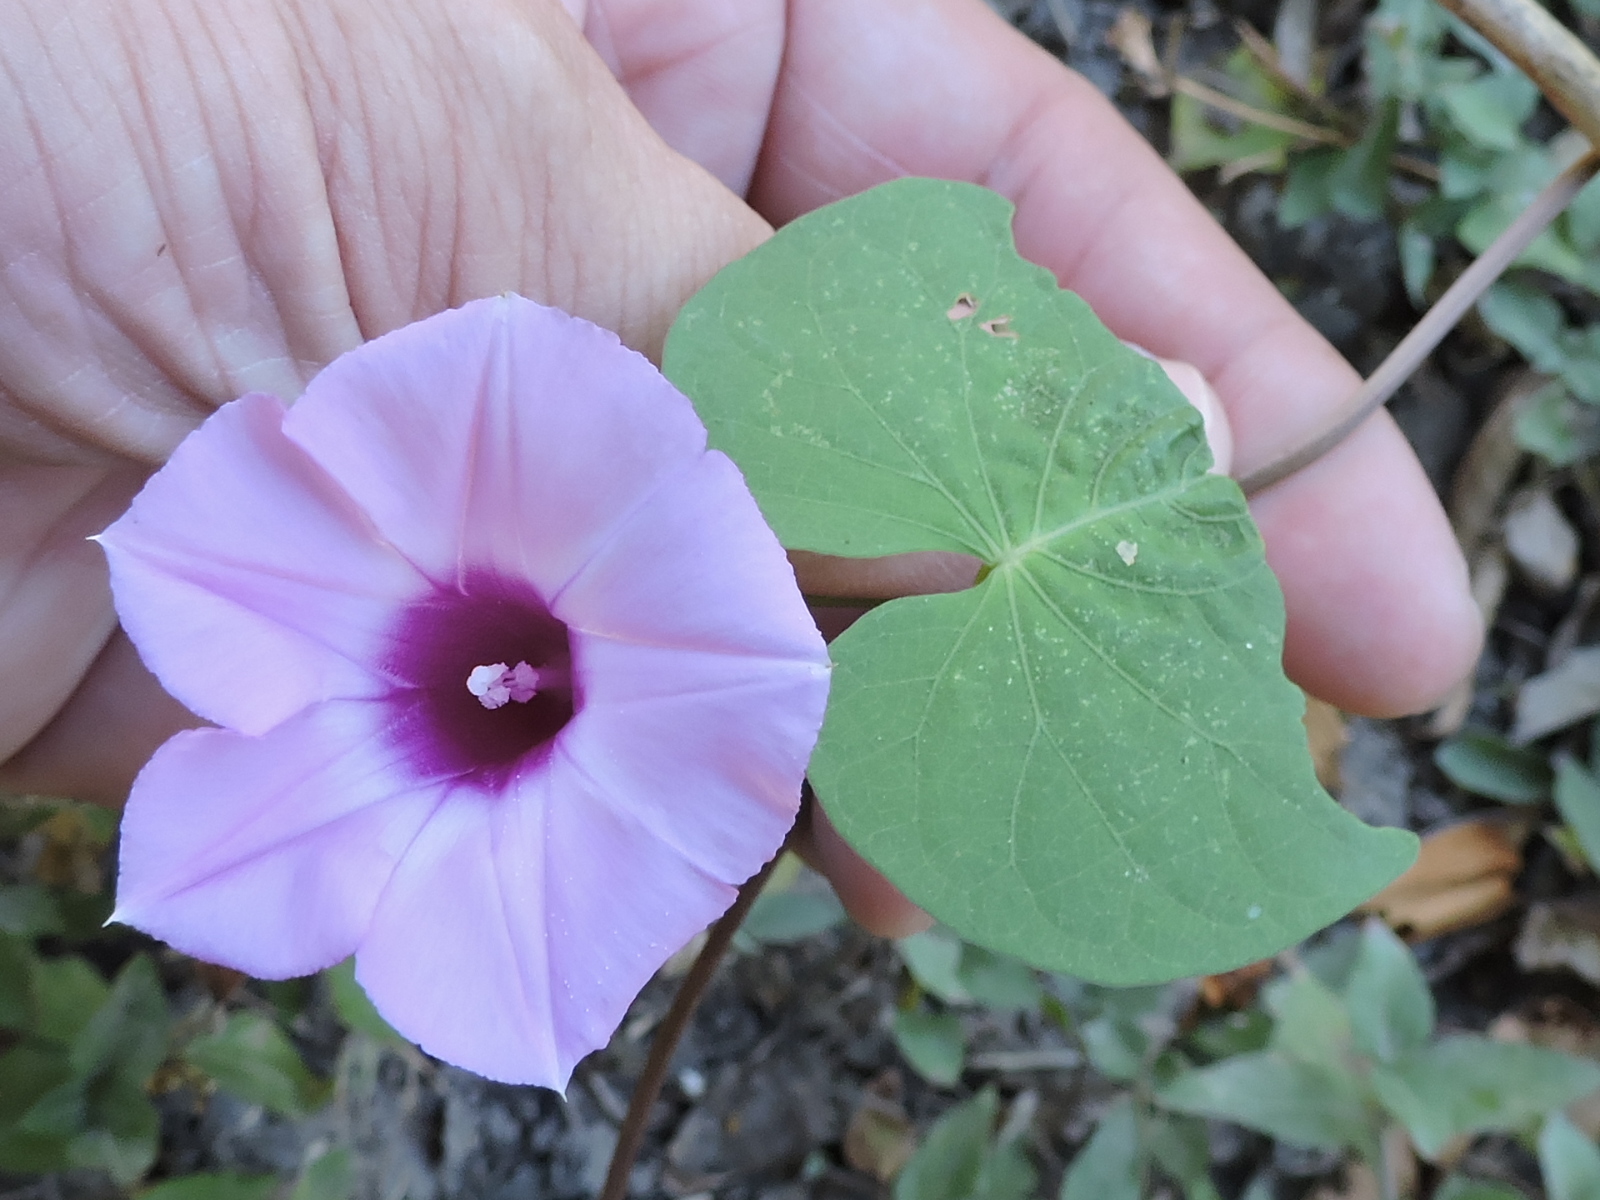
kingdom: Plantae
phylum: Tracheophyta
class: Magnoliopsida
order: Solanales
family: Convolvulaceae
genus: Ipomoea
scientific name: Ipomoea cordatotriloba
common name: Cotton morning glory
